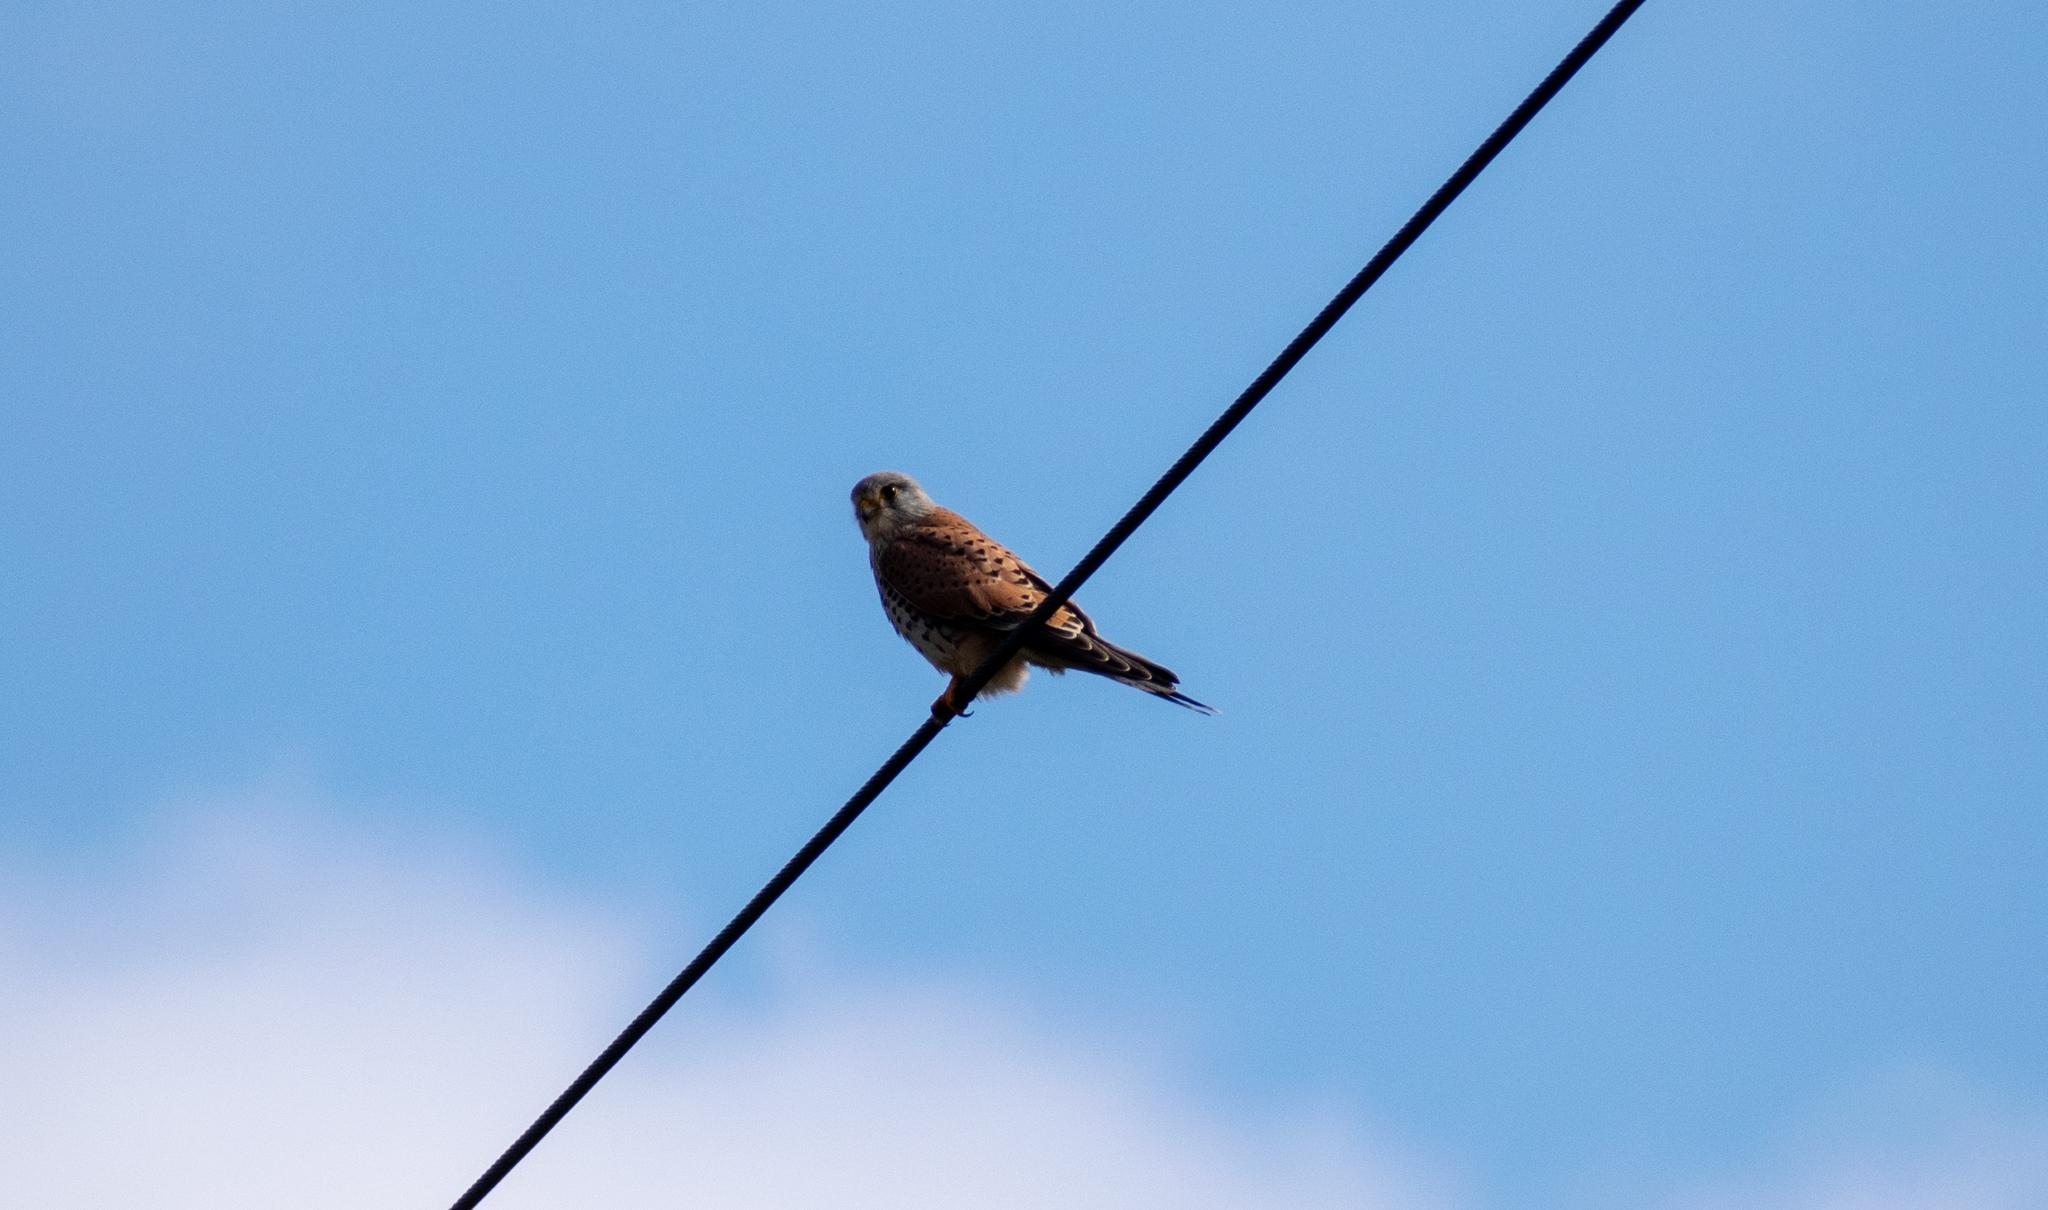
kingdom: Animalia
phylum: Chordata
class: Aves
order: Falconiformes
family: Falconidae
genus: Falco
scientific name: Falco tinnunculus
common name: Common kestrel
